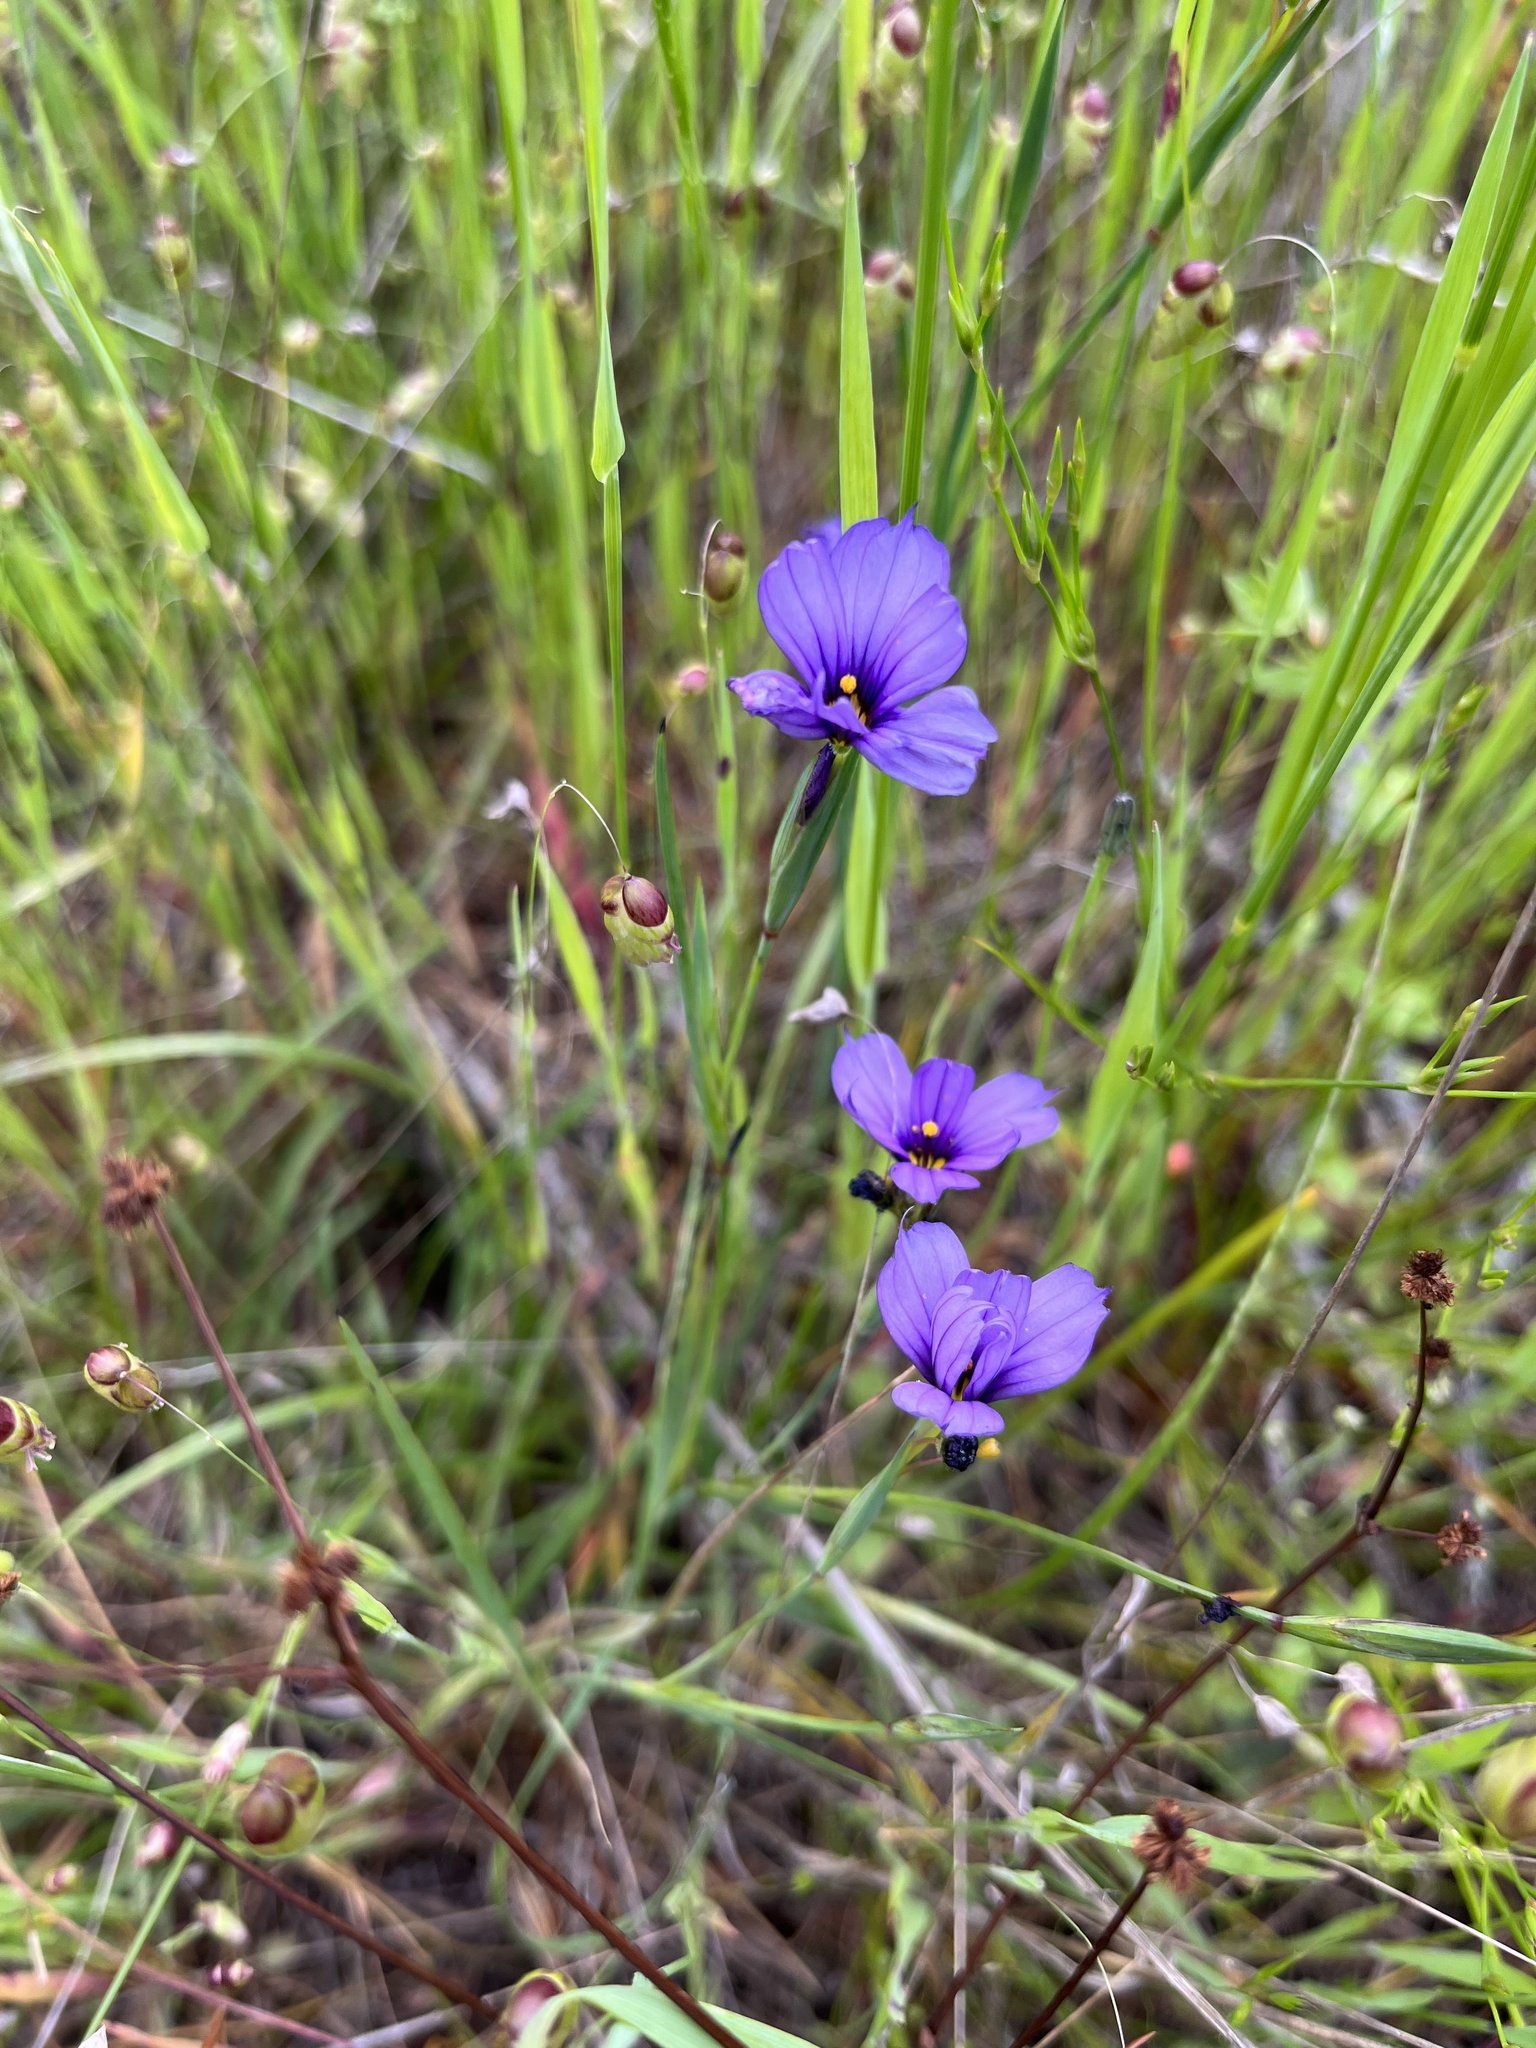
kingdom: Plantae
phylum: Tracheophyta
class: Liliopsida
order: Asparagales
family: Iridaceae
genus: Sisyrinchium
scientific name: Sisyrinchium bellum
